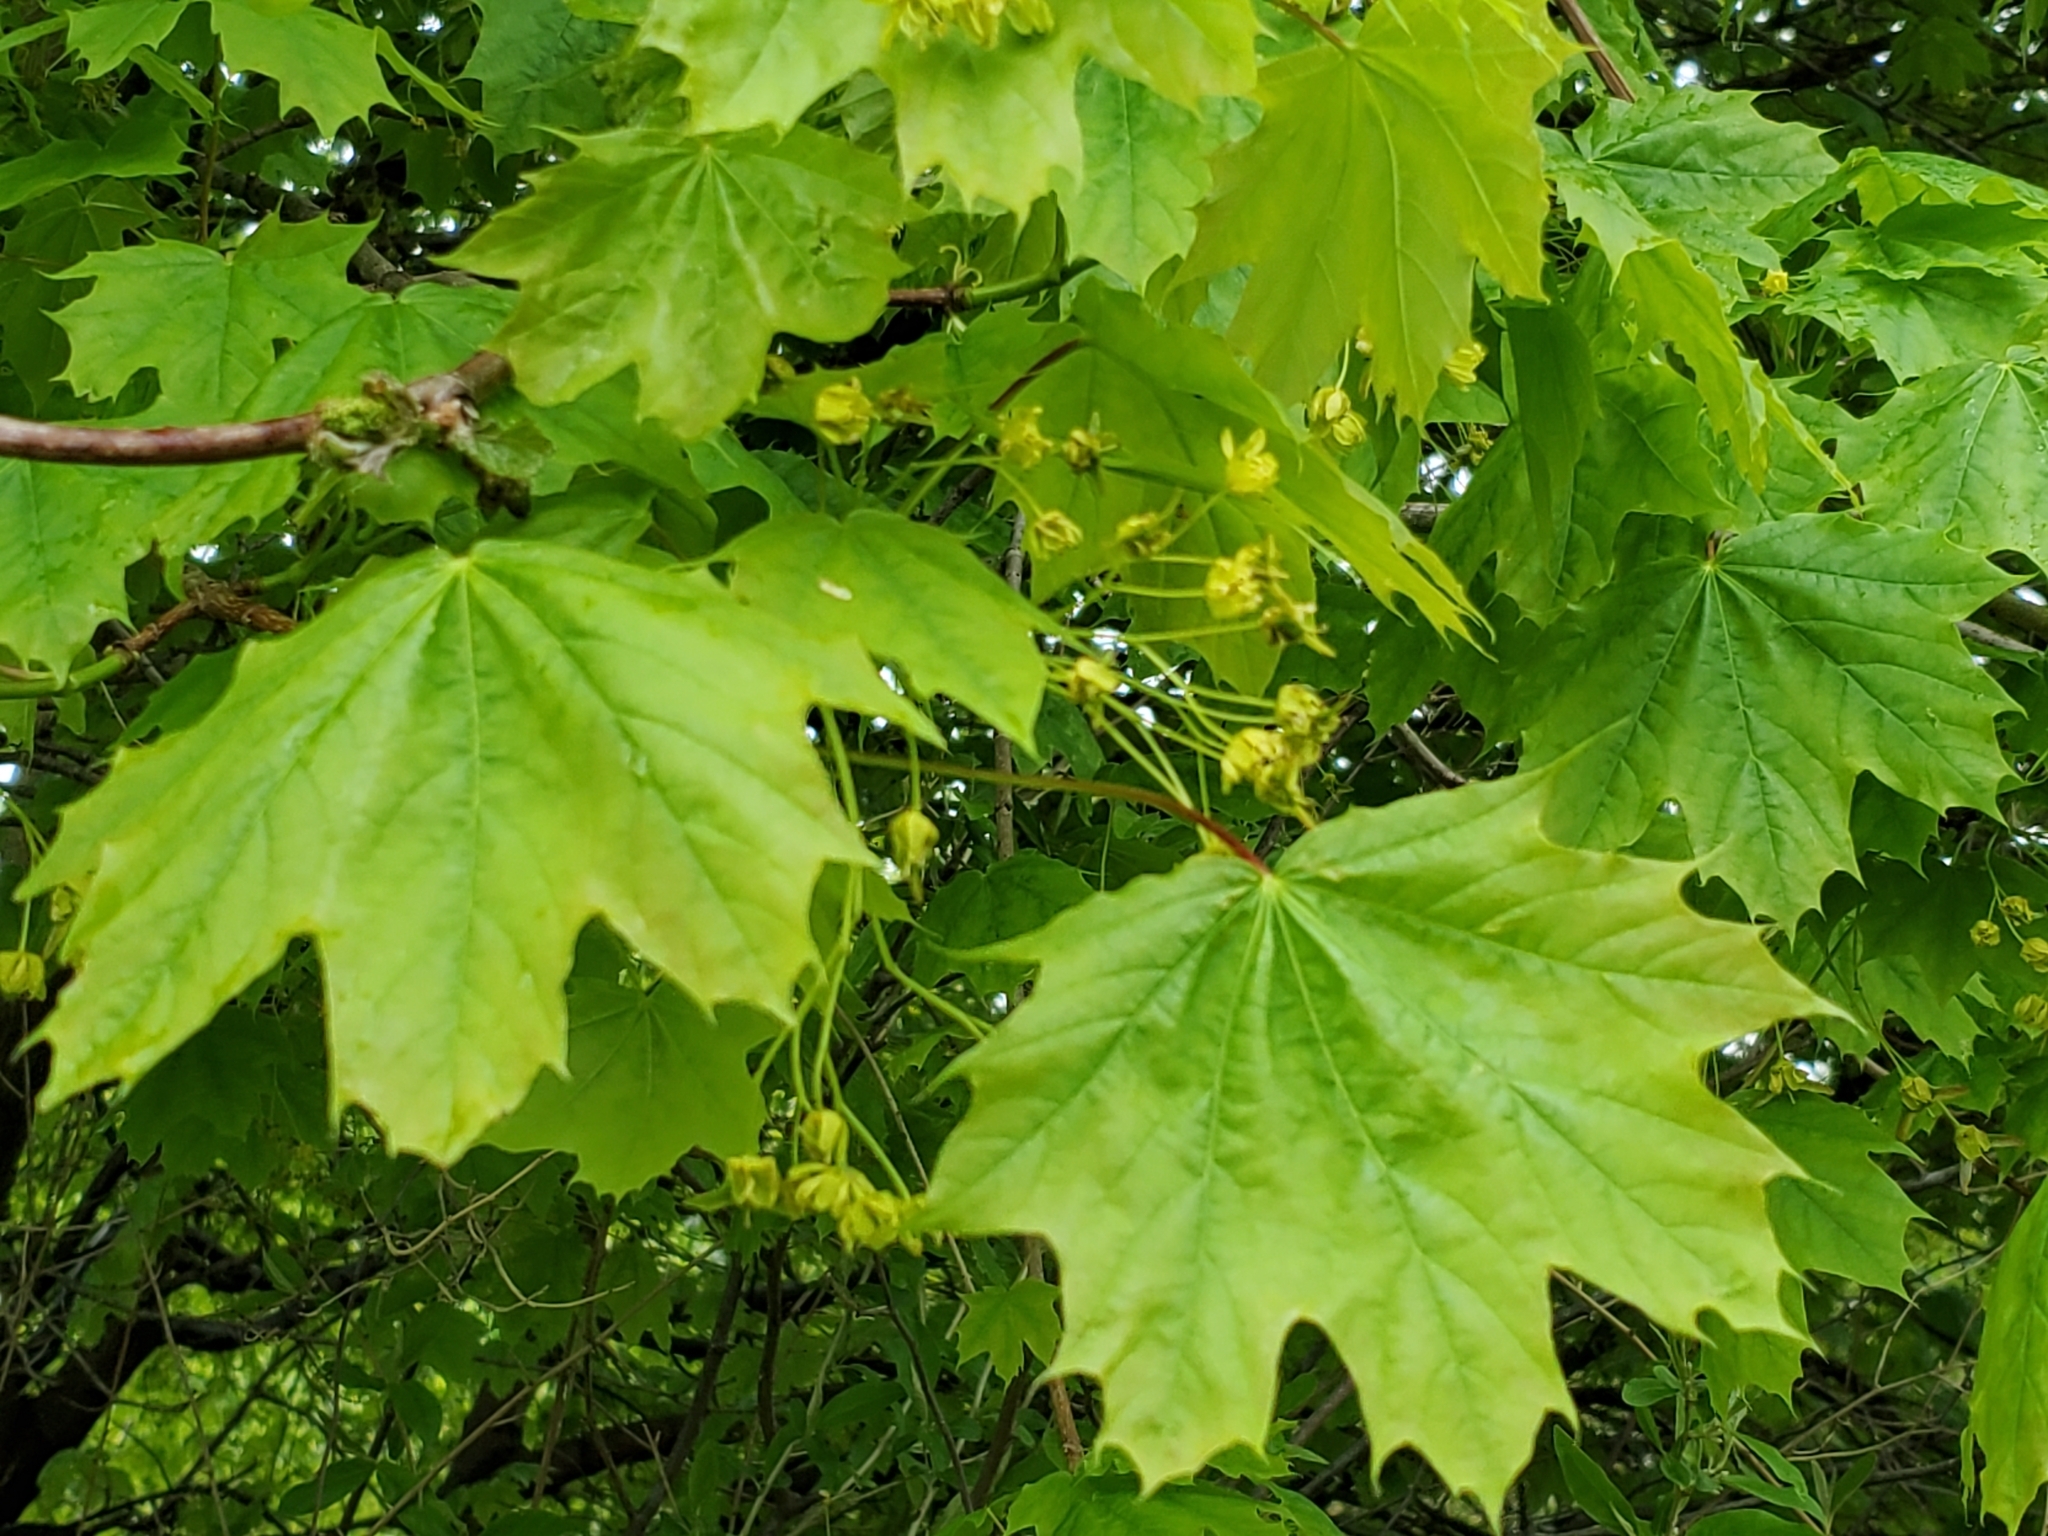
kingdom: Plantae
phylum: Tracheophyta
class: Magnoliopsida
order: Sapindales
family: Sapindaceae
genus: Acer
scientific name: Acer platanoides
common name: Norway maple
